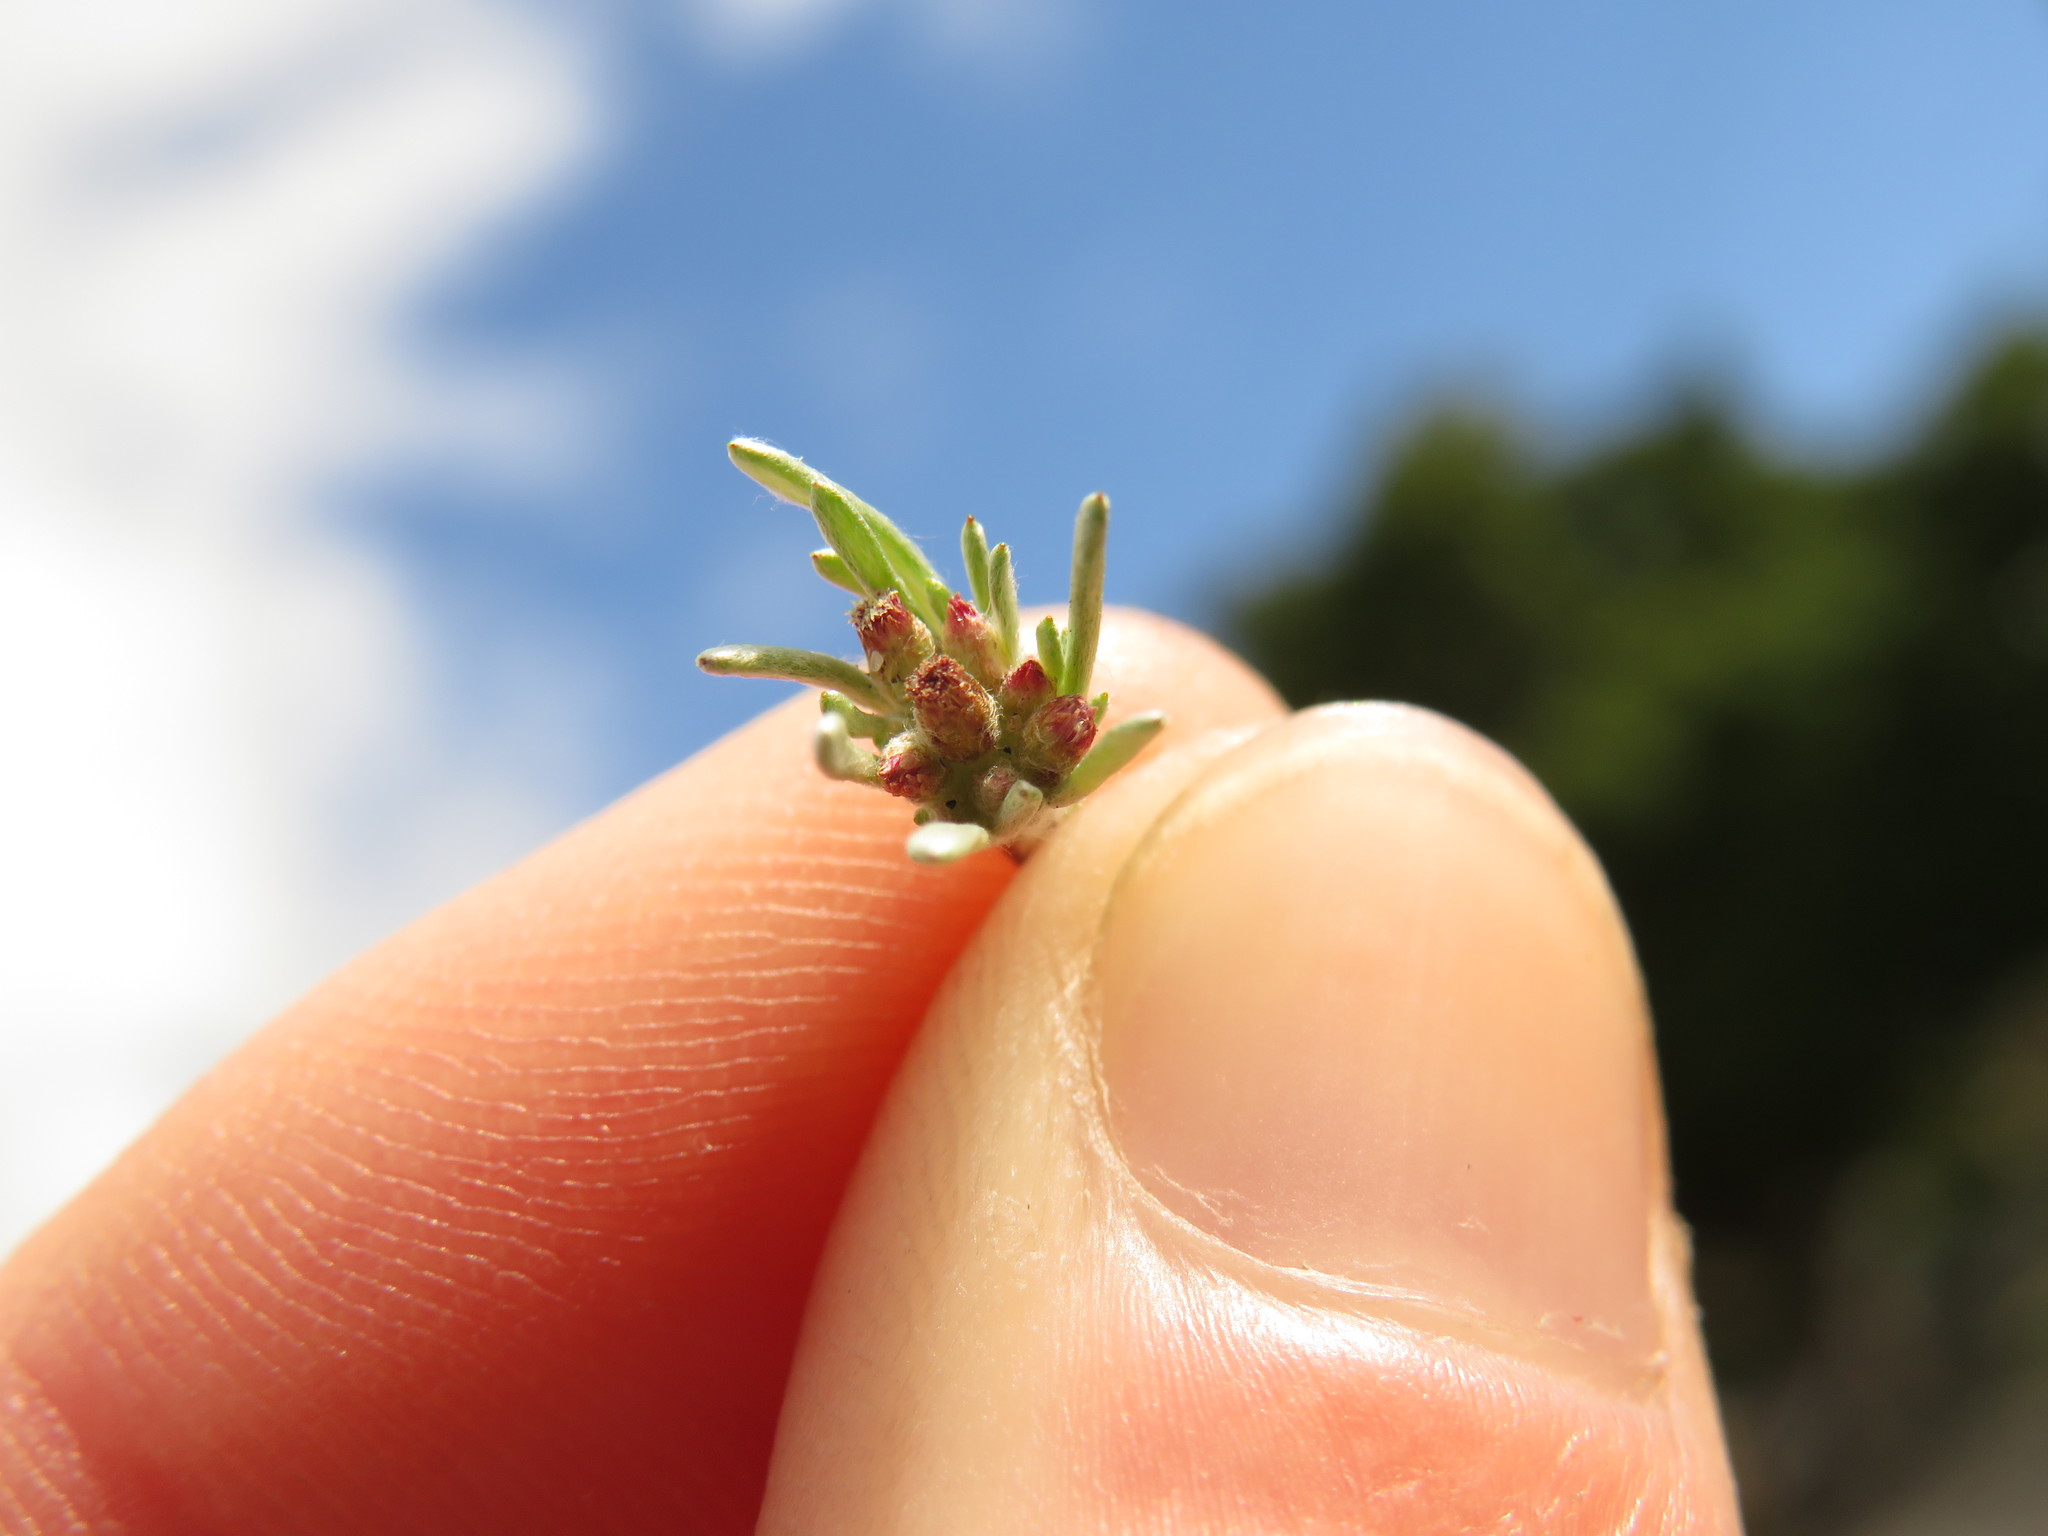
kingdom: Plantae
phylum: Tracheophyta
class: Magnoliopsida
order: Asterales
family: Asteraceae
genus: Gnaphalium
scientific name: Gnaphalium pauciflorum
